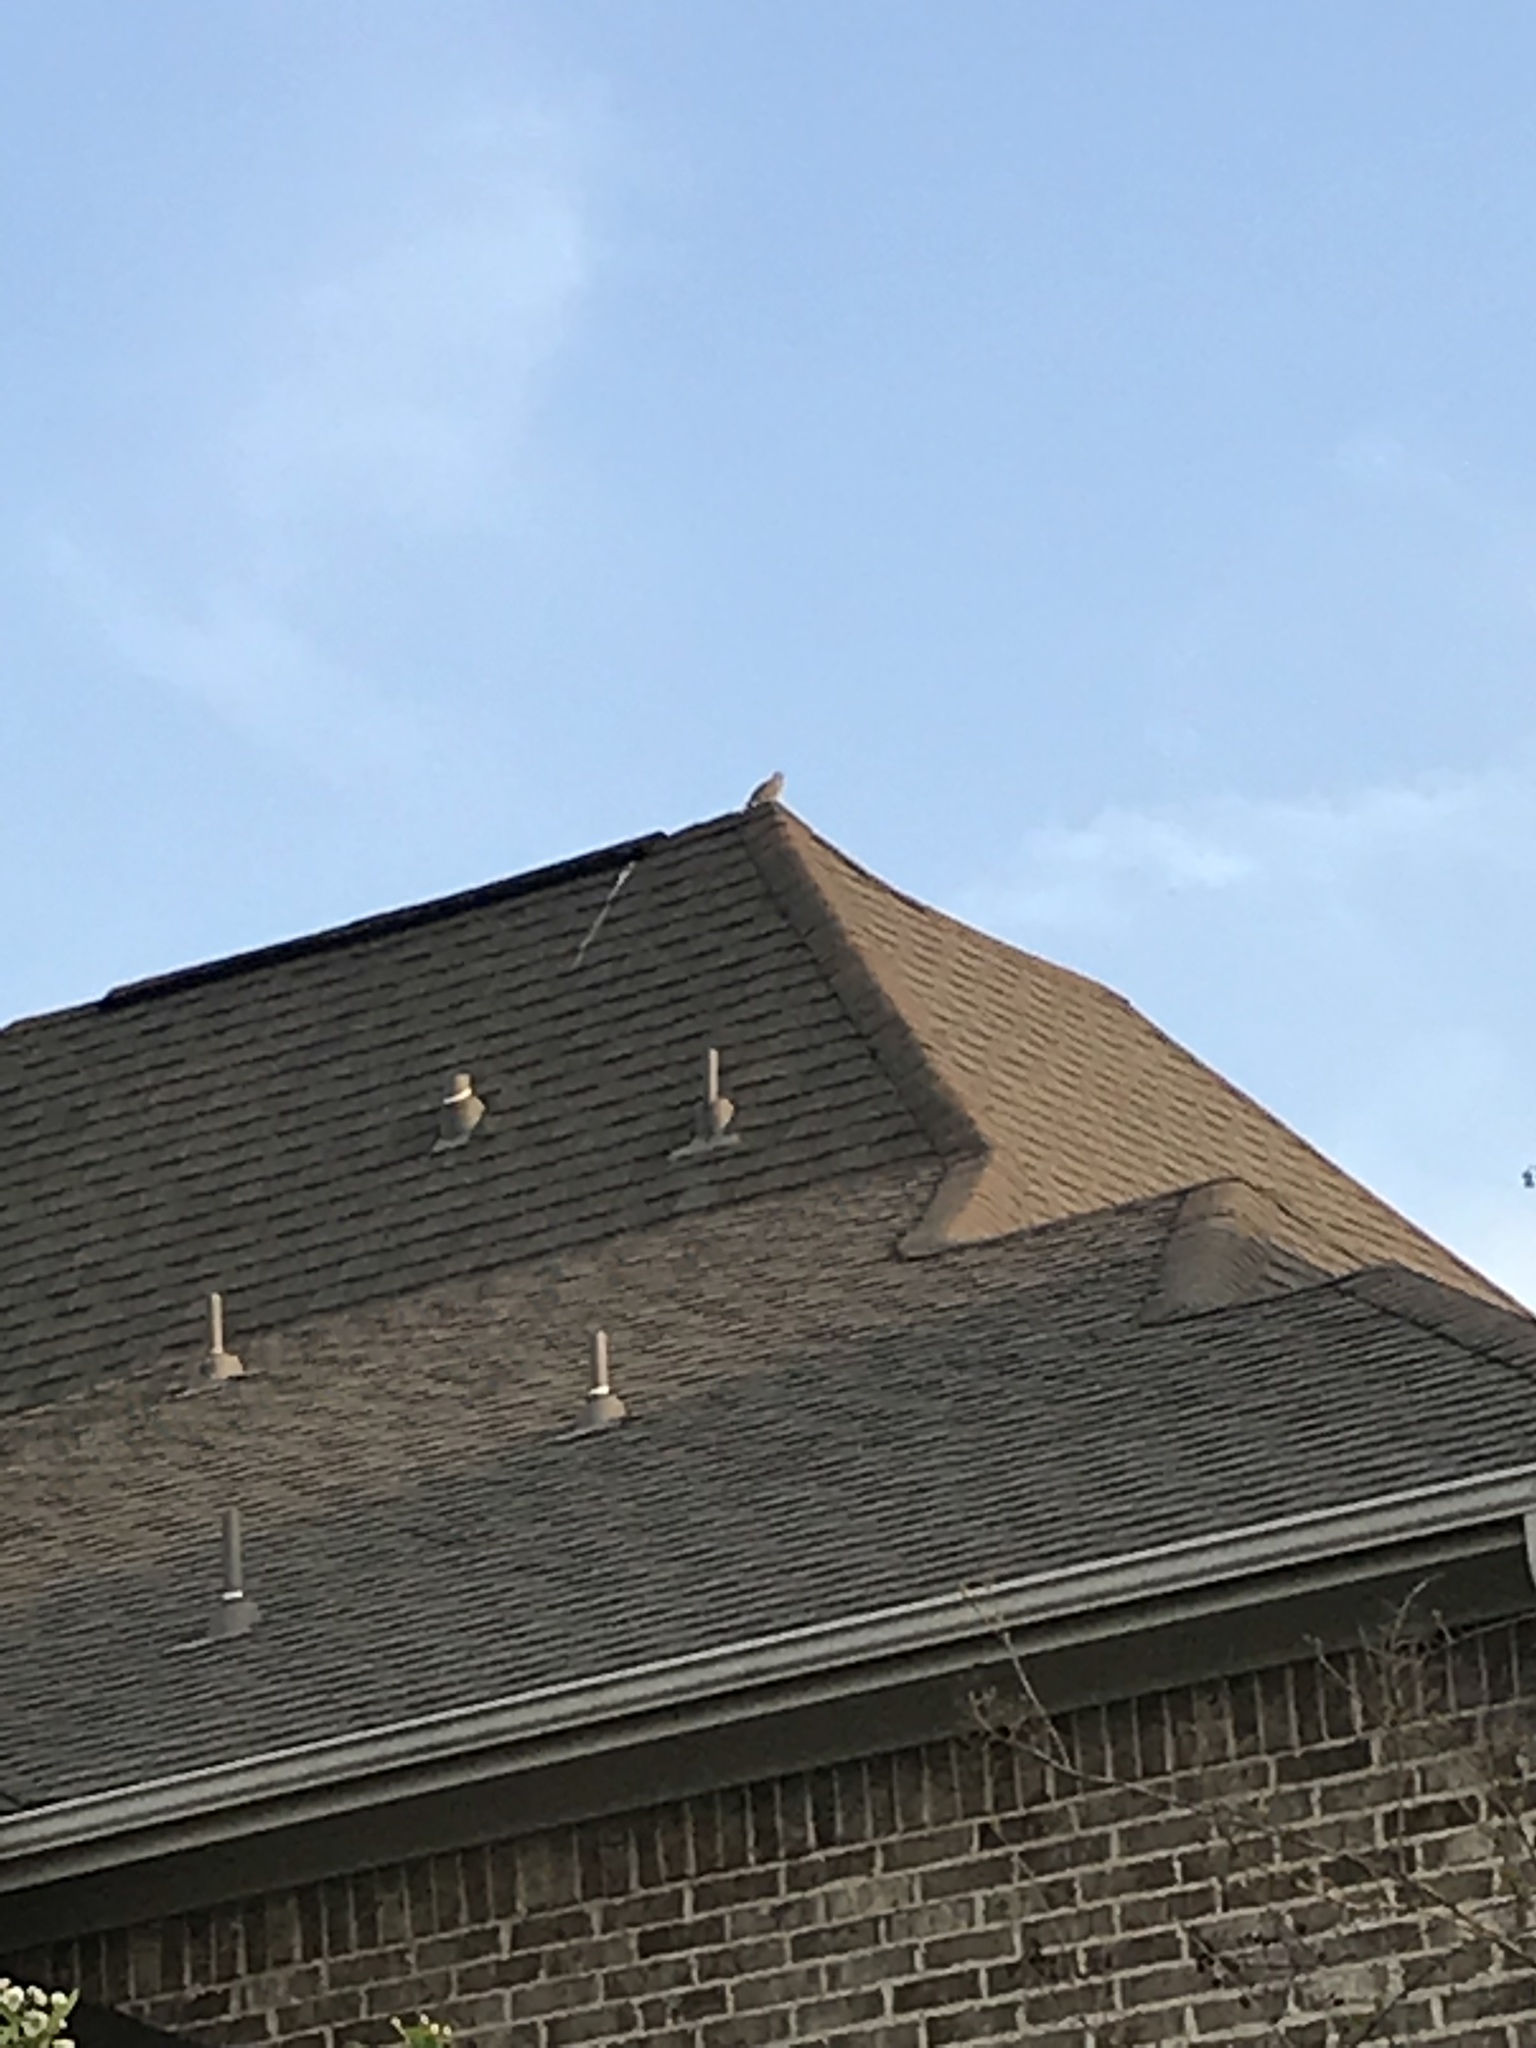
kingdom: Animalia
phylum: Chordata
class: Aves
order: Columbiformes
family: Columbidae
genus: Zenaida
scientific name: Zenaida macroura
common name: Mourning dove
